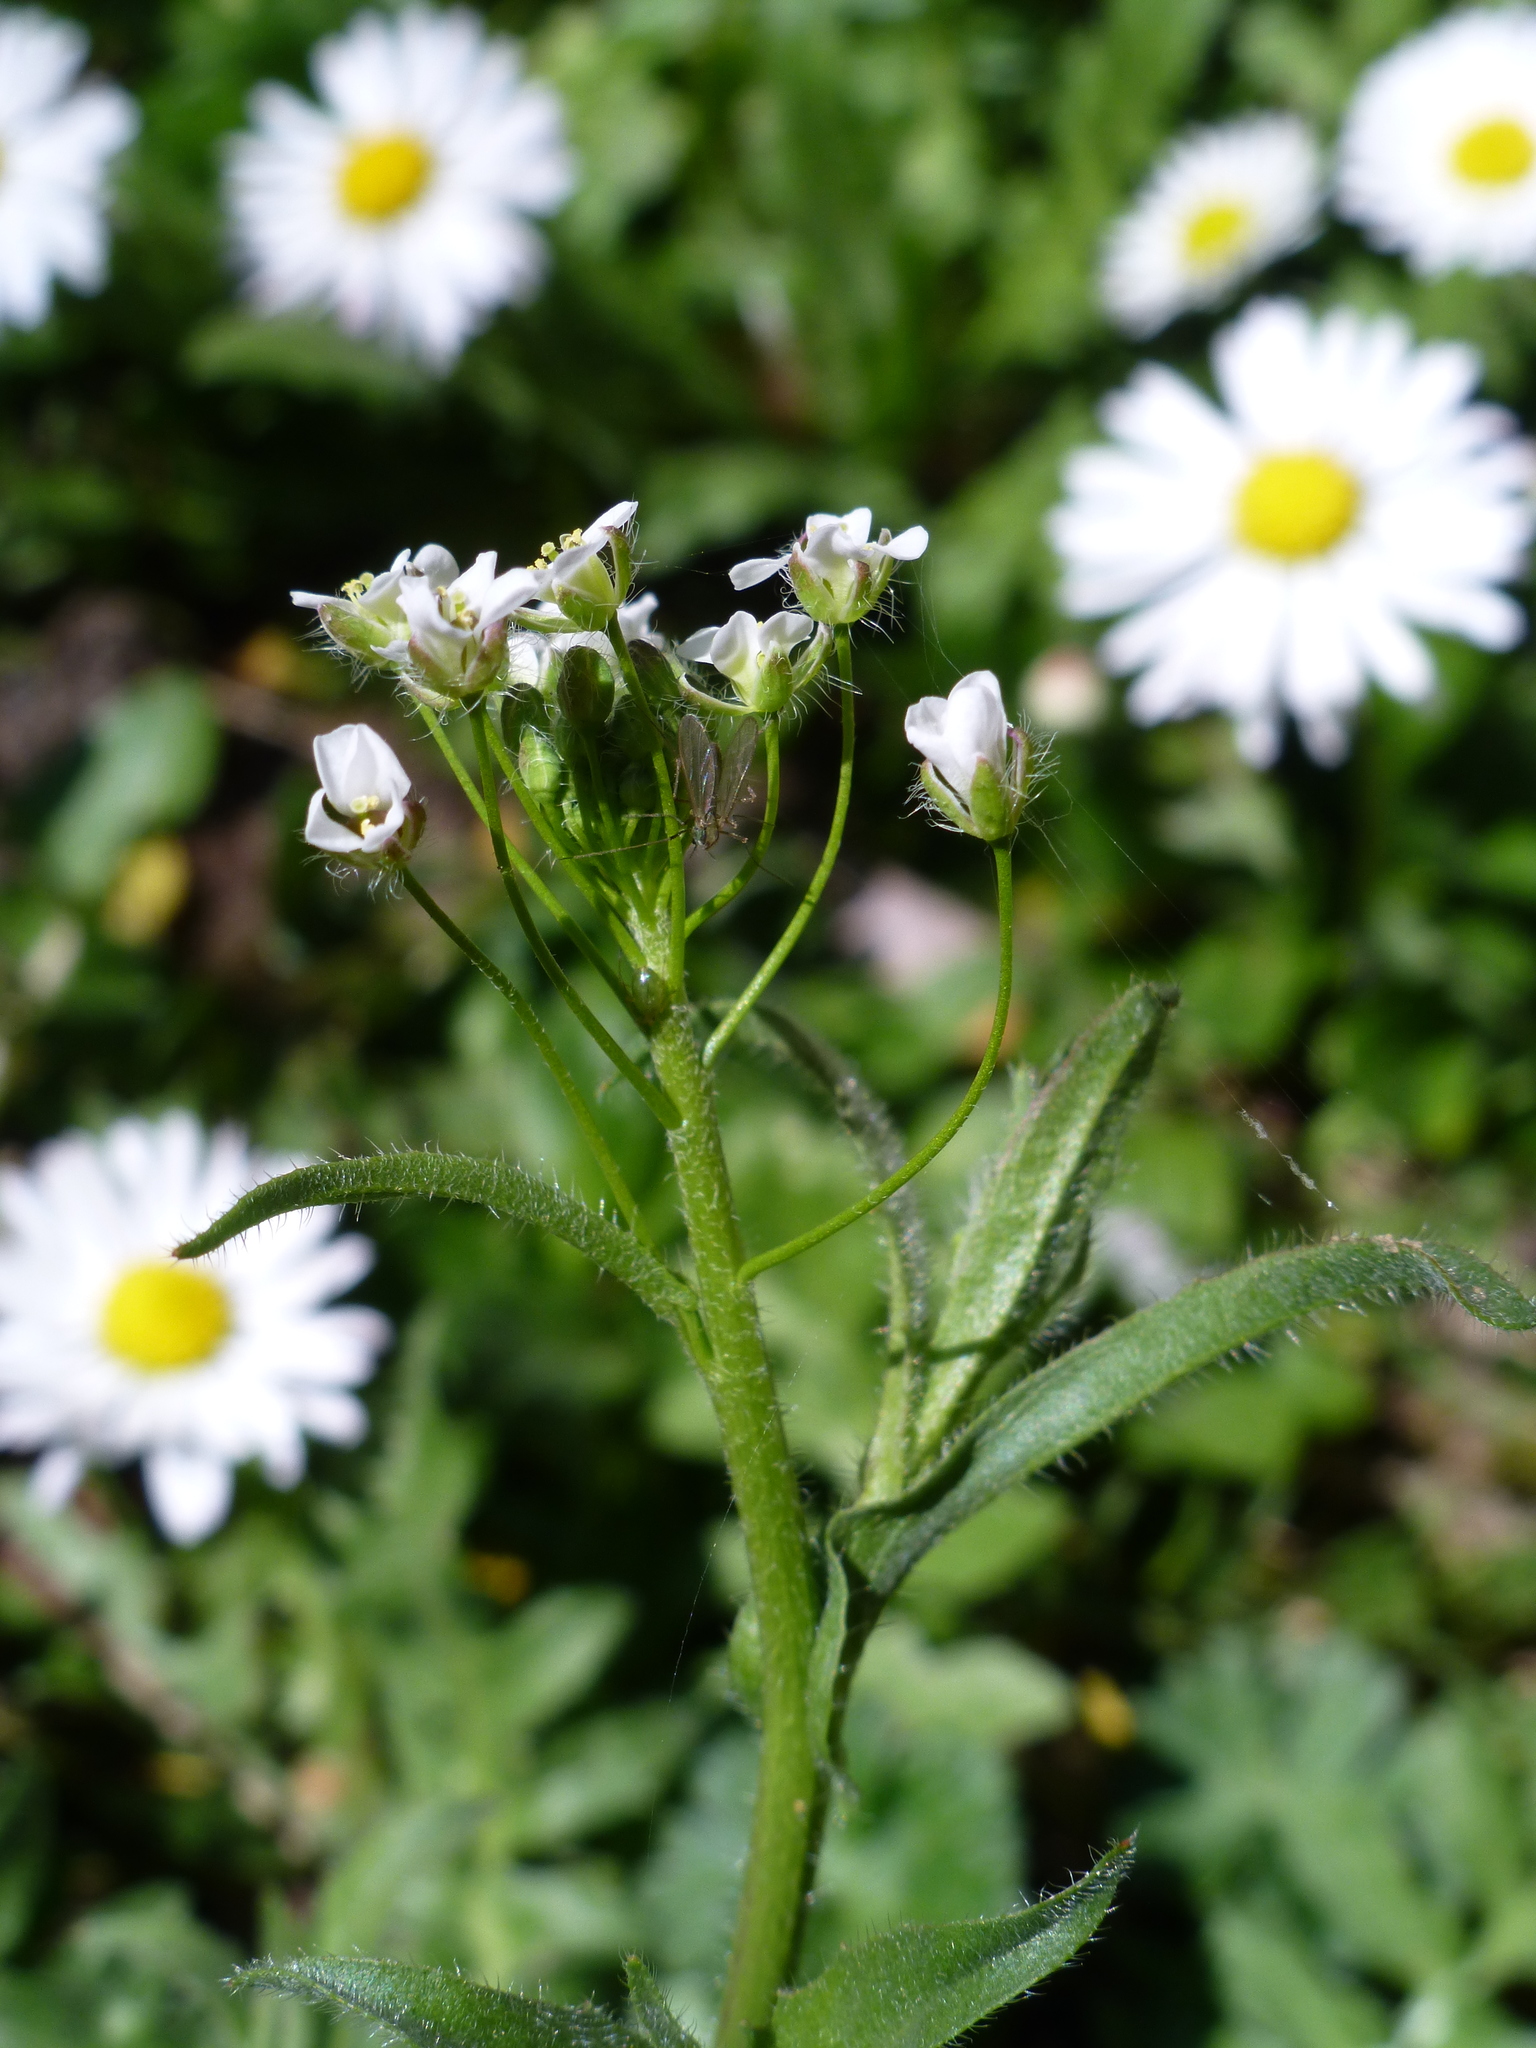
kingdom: Plantae
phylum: Tracheophyta
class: Magnoliopsida
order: Brassicales
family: Brassicaceae
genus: Capsella
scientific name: Capsella bursa-pastoris
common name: Shepherd's purse
